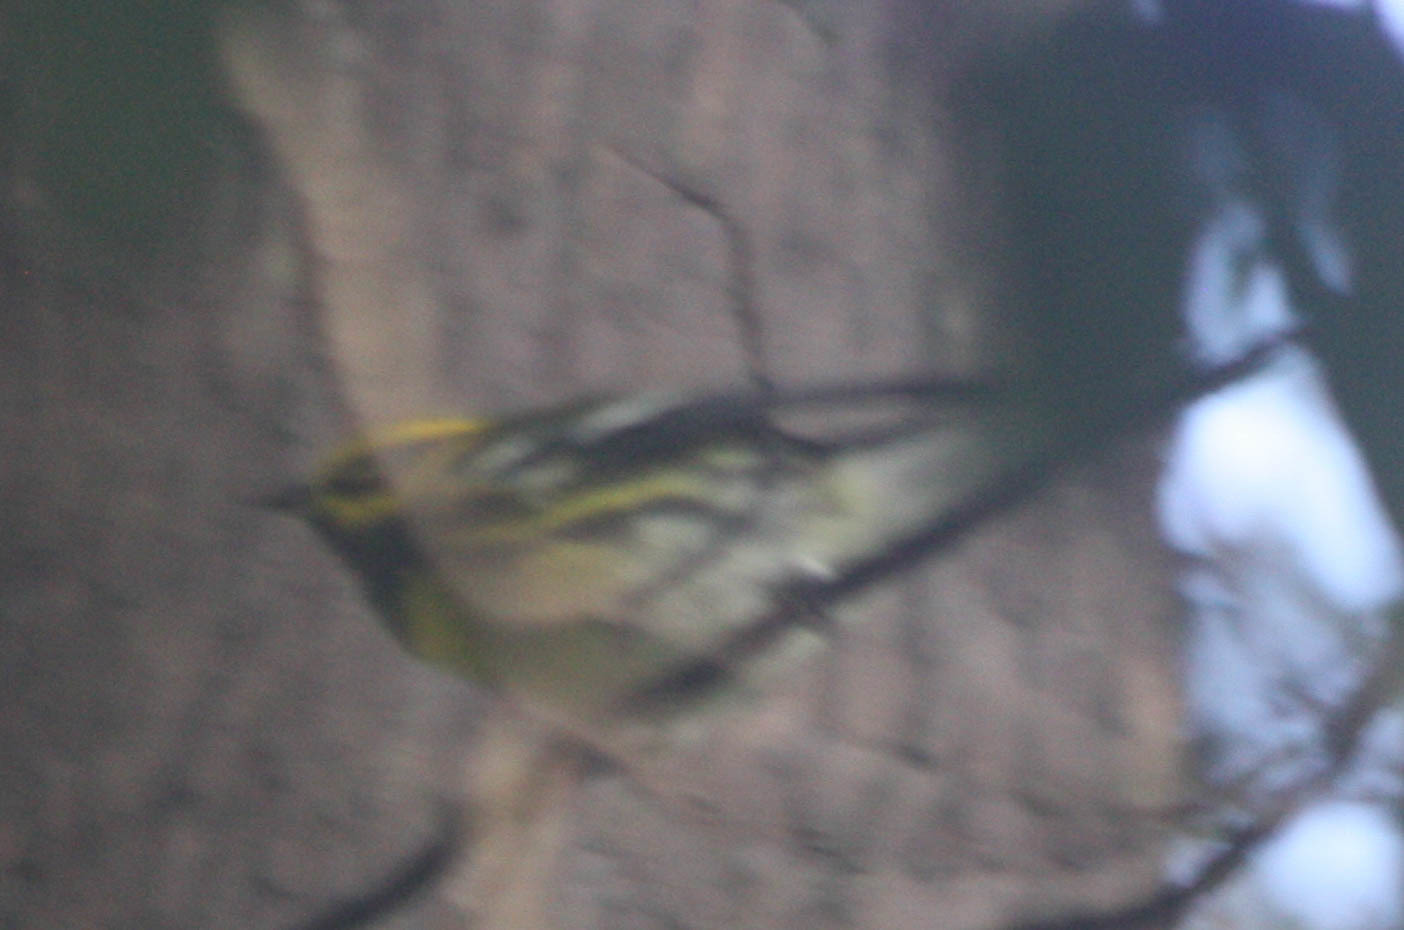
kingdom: Animalia
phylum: Chordata
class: Aves
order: Passeriformes
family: Parulidae
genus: Setophaga
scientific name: Setophaga townsendi
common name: Townsend's warbler
